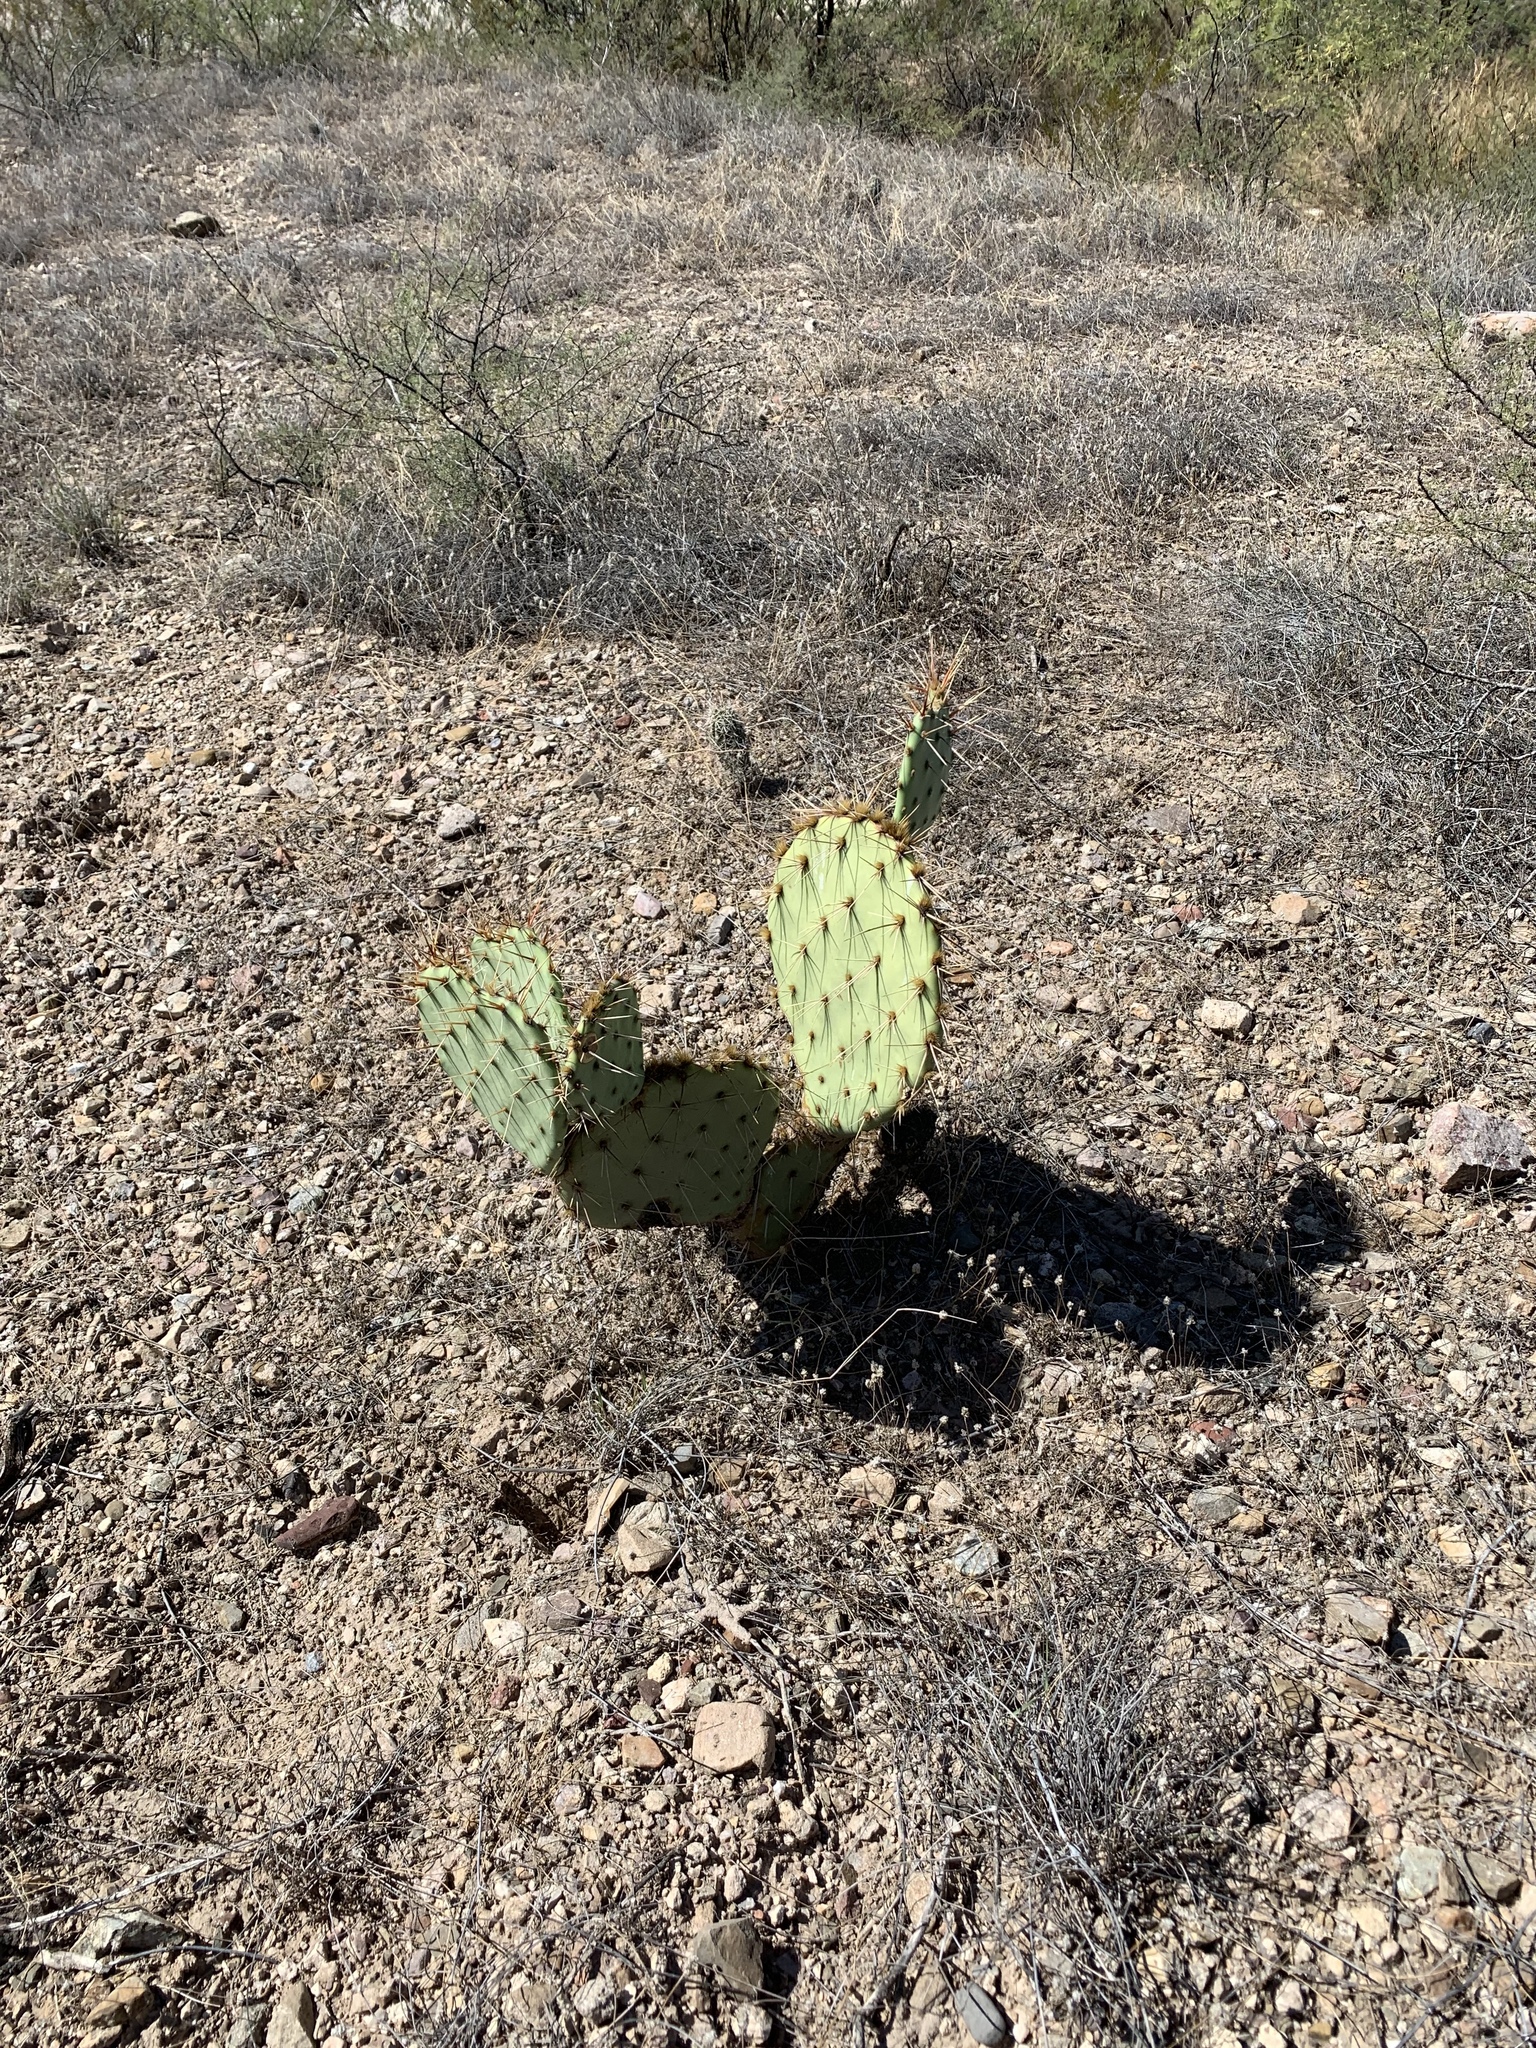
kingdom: Plantae
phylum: Tracheophyta
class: Magnoliopsida
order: Caryophyllales
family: Cactaceae
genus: Opuntia
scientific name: Opuntia engelmannii
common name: Cactus-apple
